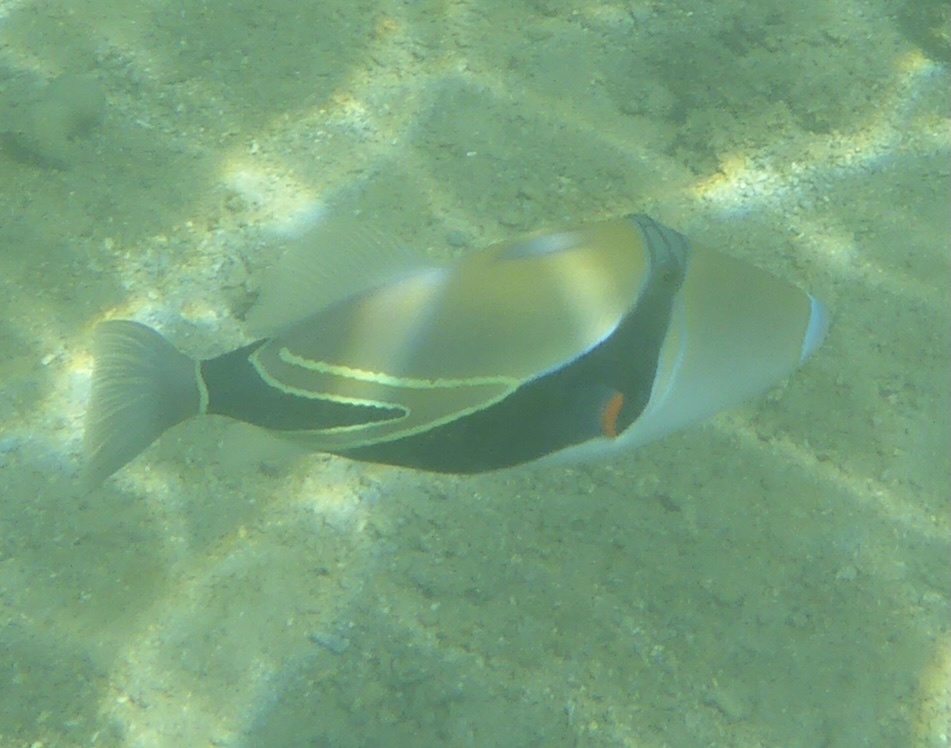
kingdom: Animalia
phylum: Chordata
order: Tetraodontiformes
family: Balistidae
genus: Rhinecanthus
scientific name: Rhinecanthus rectangulus
